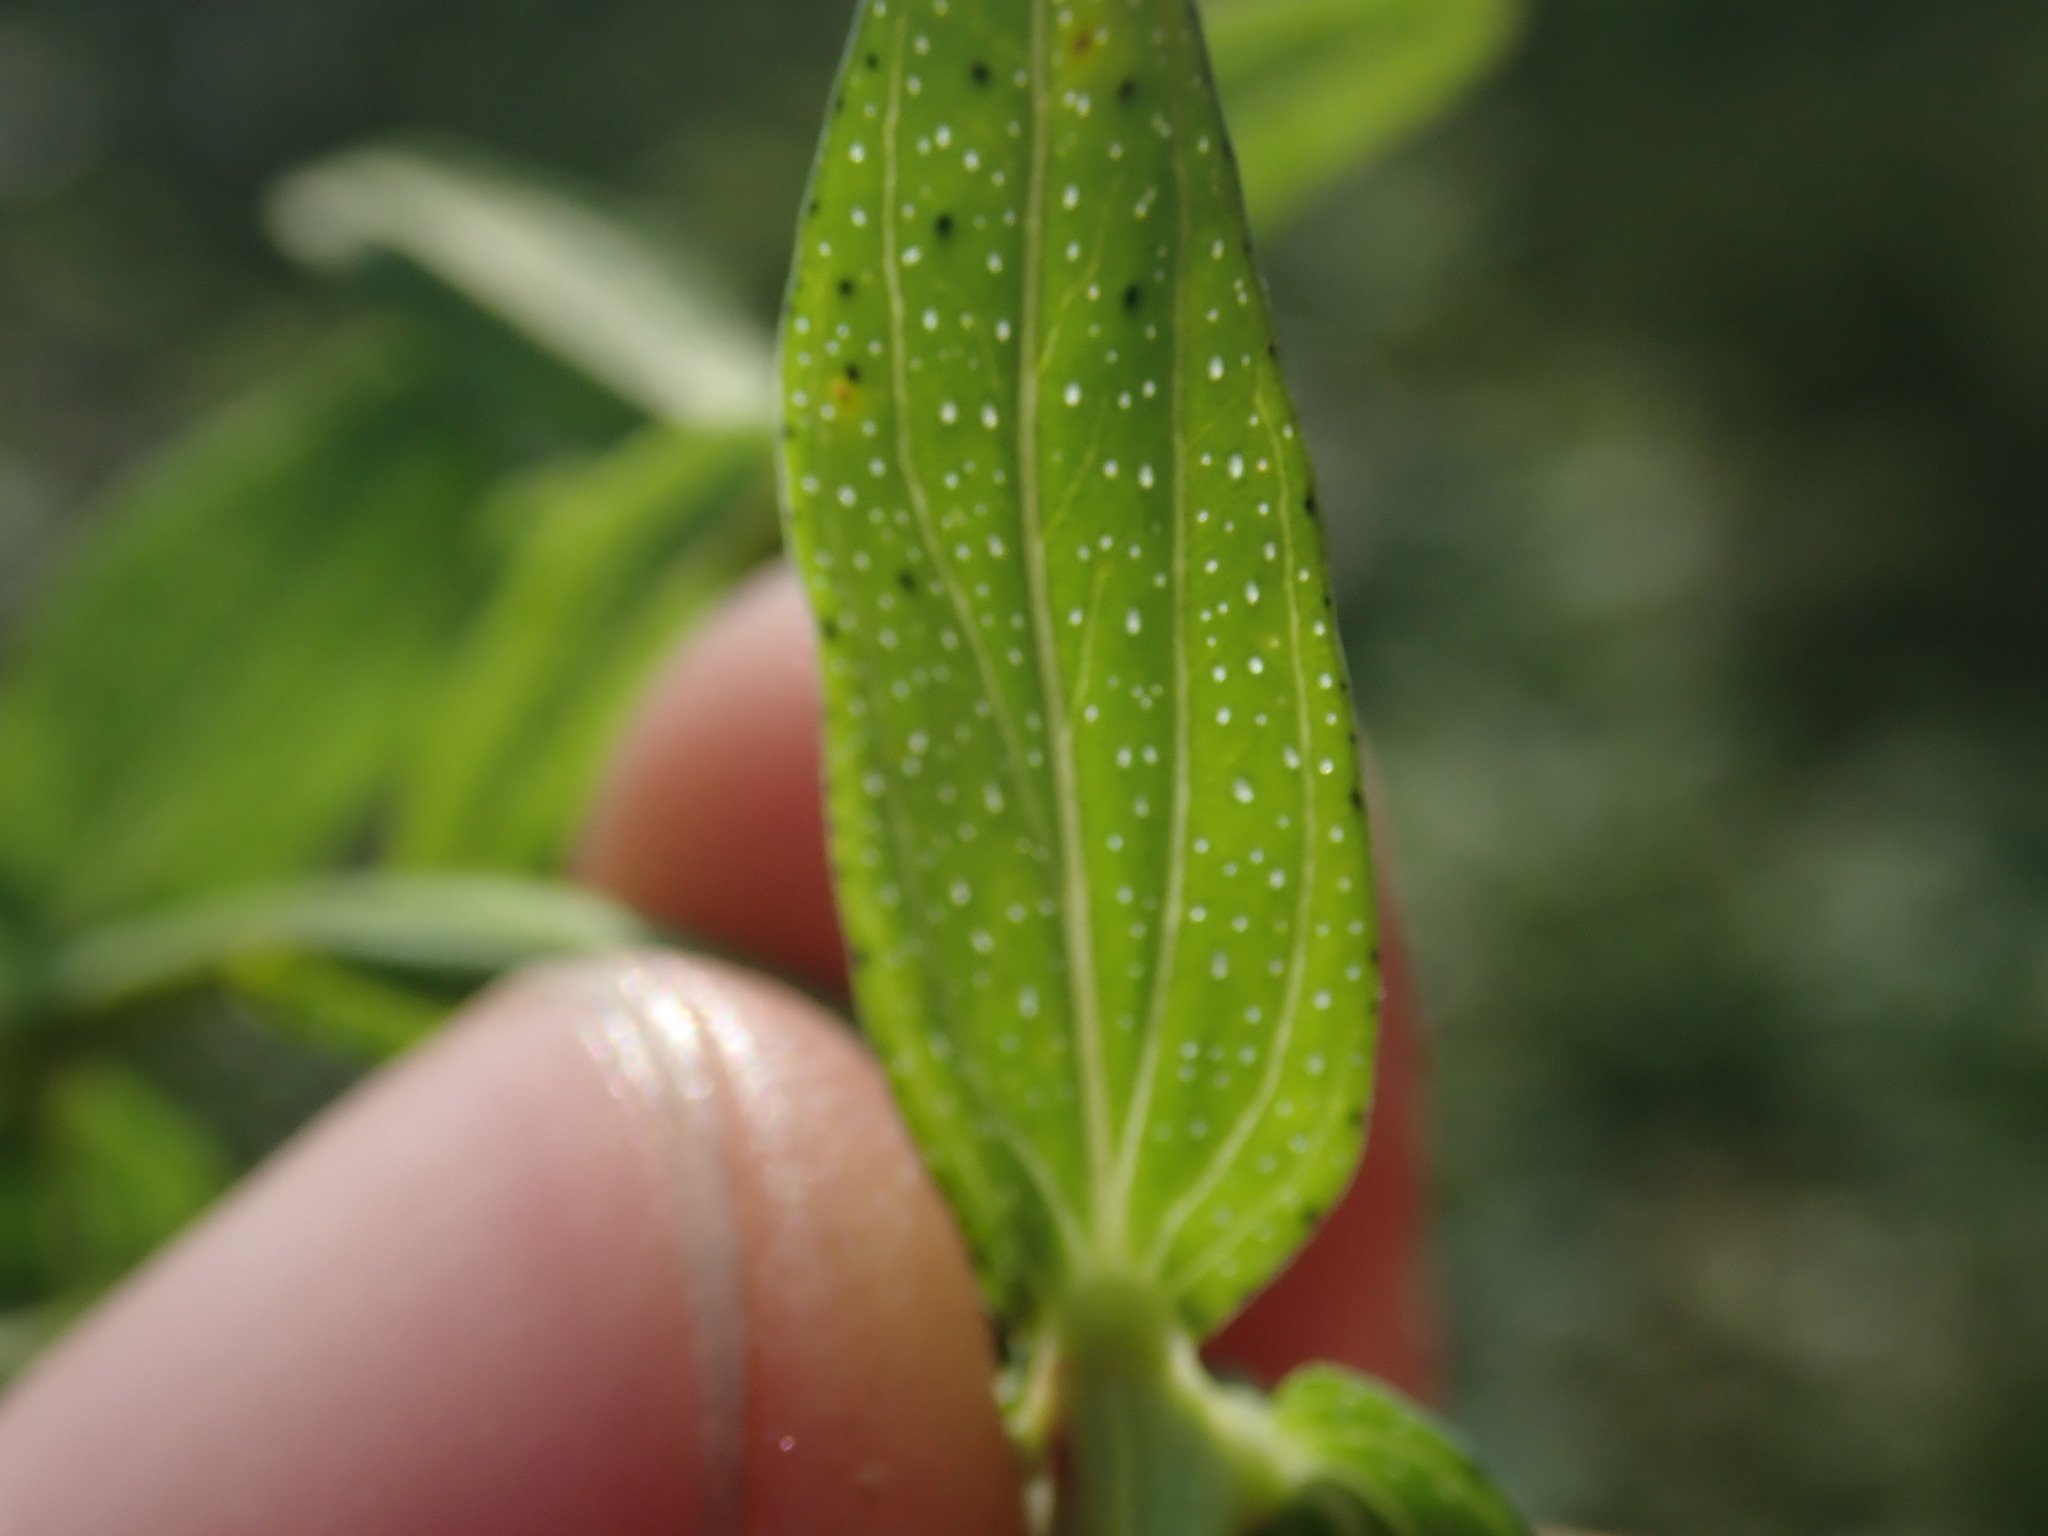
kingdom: Plantae
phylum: Tracheophyta
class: Magnoliopsida
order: Malpighiales
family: Hypericaceae
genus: Hypericum
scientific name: Hypericum perforatum
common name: Common st. johnswort
